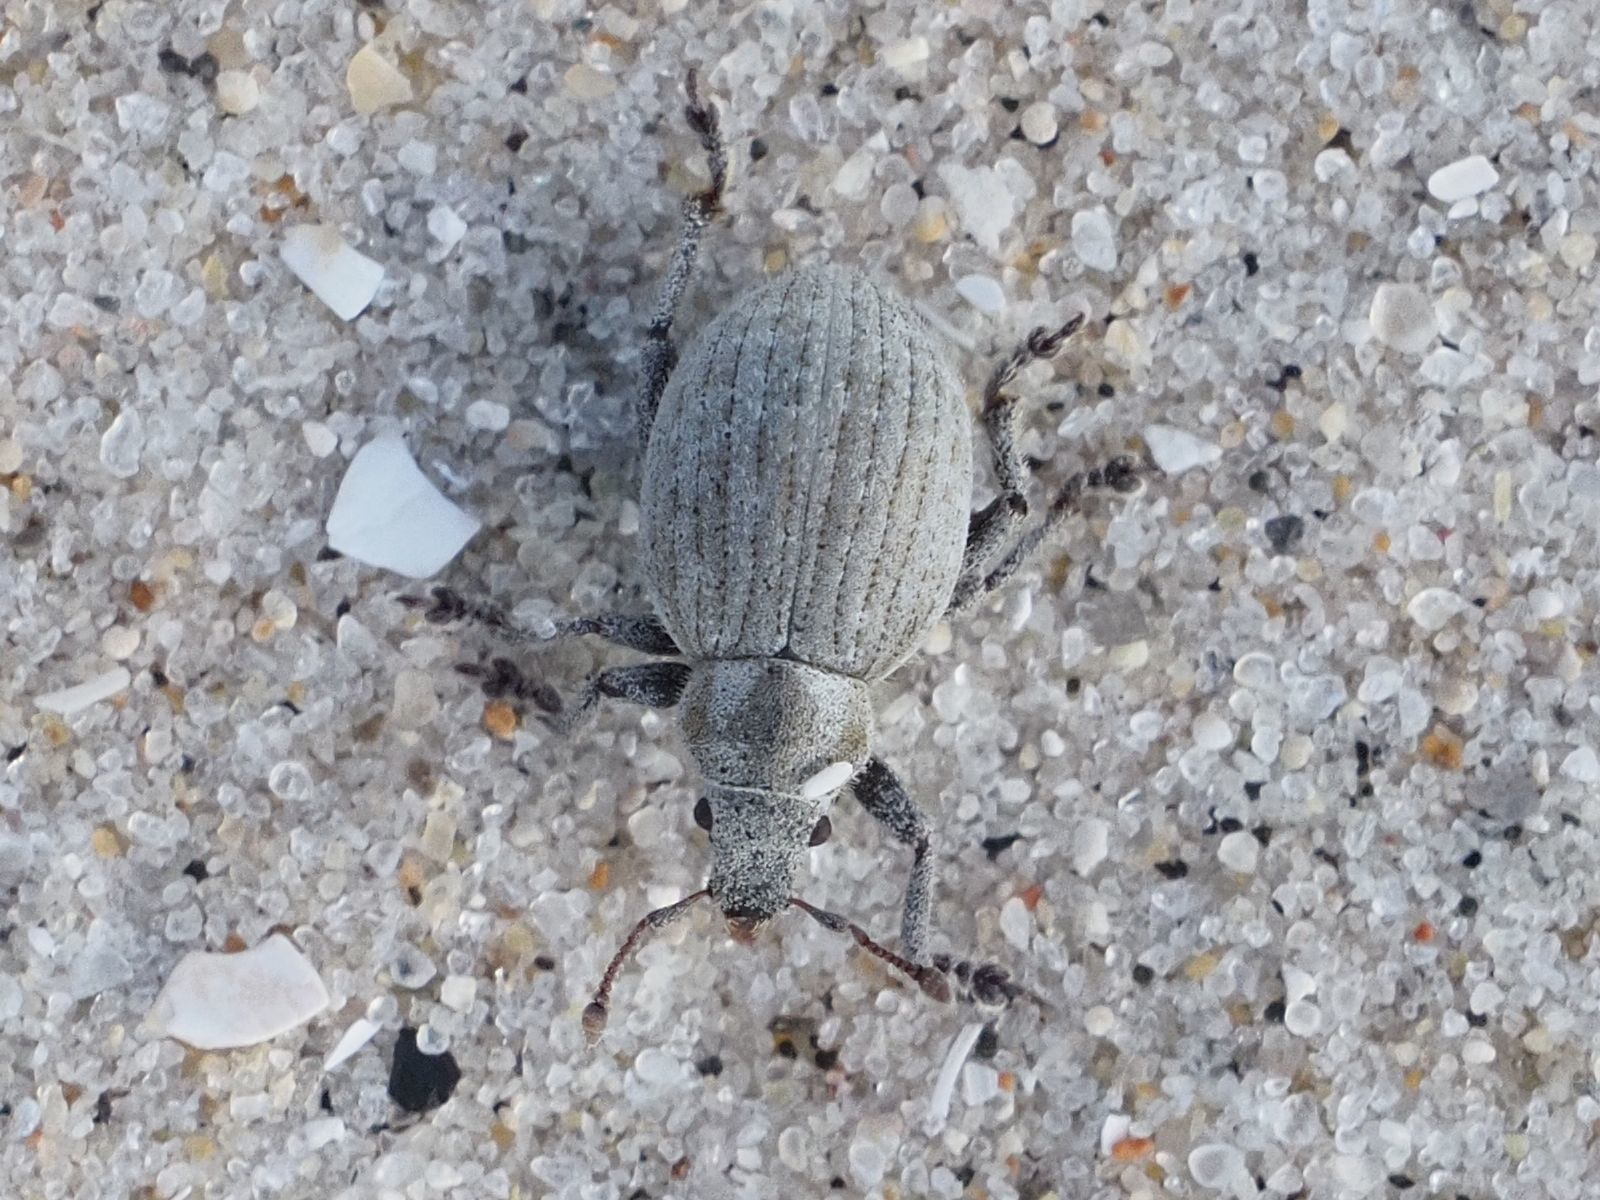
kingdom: Animalia
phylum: Arthropoda
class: Insecta
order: Coleoptera
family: Curculionidae
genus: Philopedon
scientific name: Philopedon plagiatum
